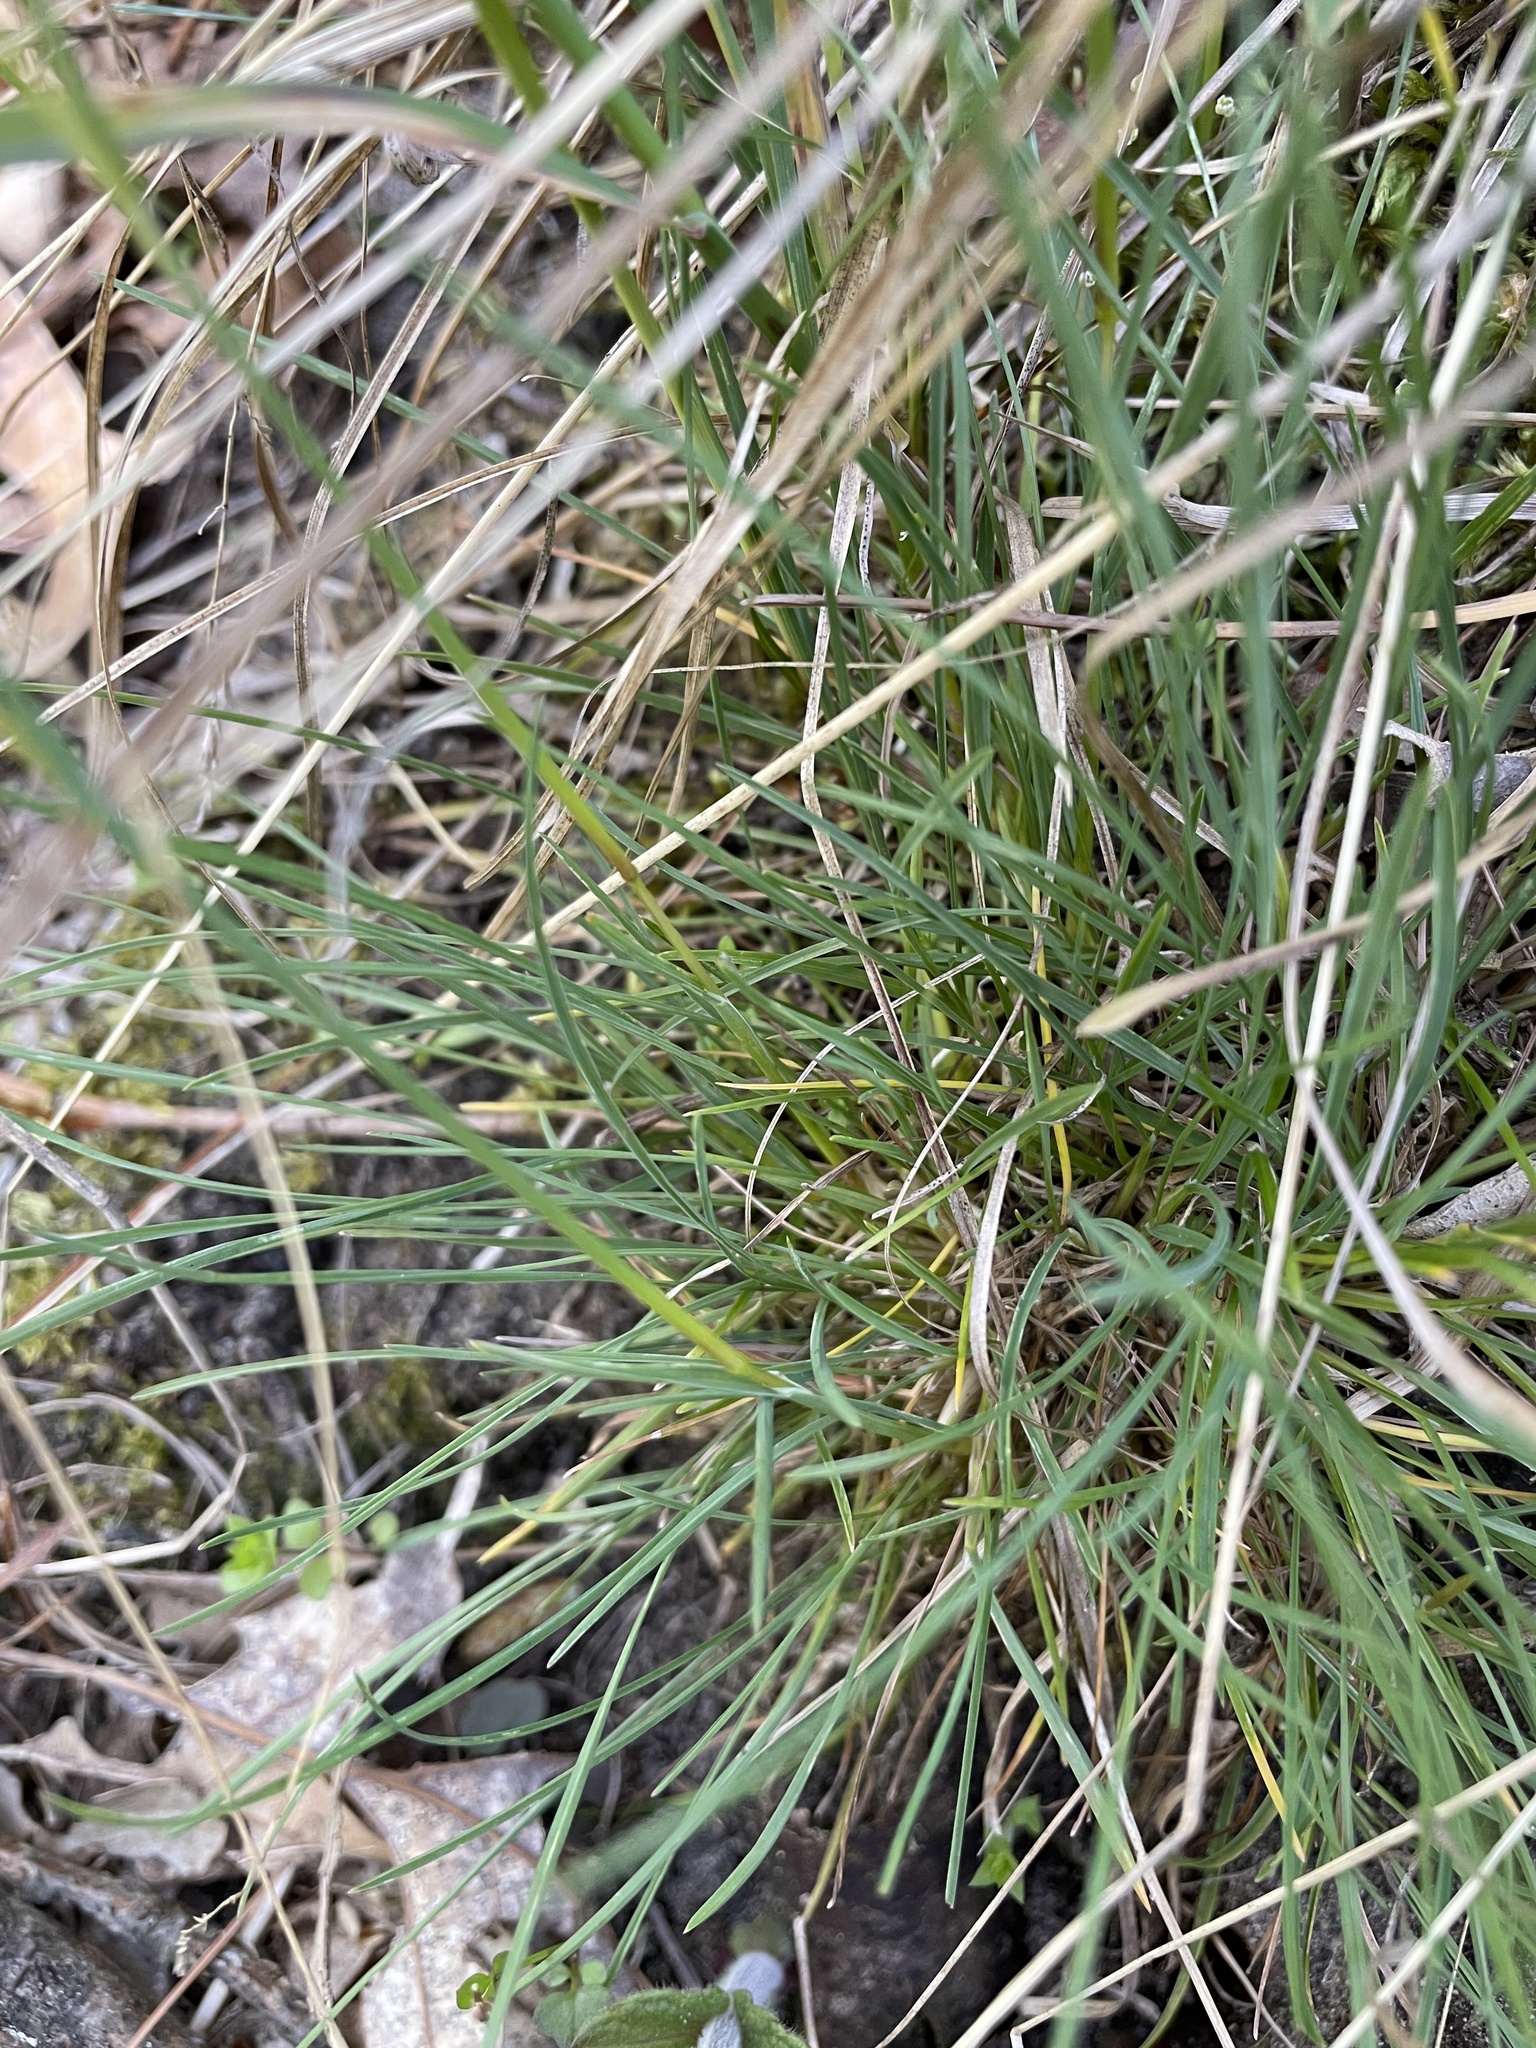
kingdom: Plantae
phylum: Tracheophyta
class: Liliopsida
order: Poales
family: Poaceae
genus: Poa
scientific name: Poa bulbosa
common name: Bulbous bluegrass
